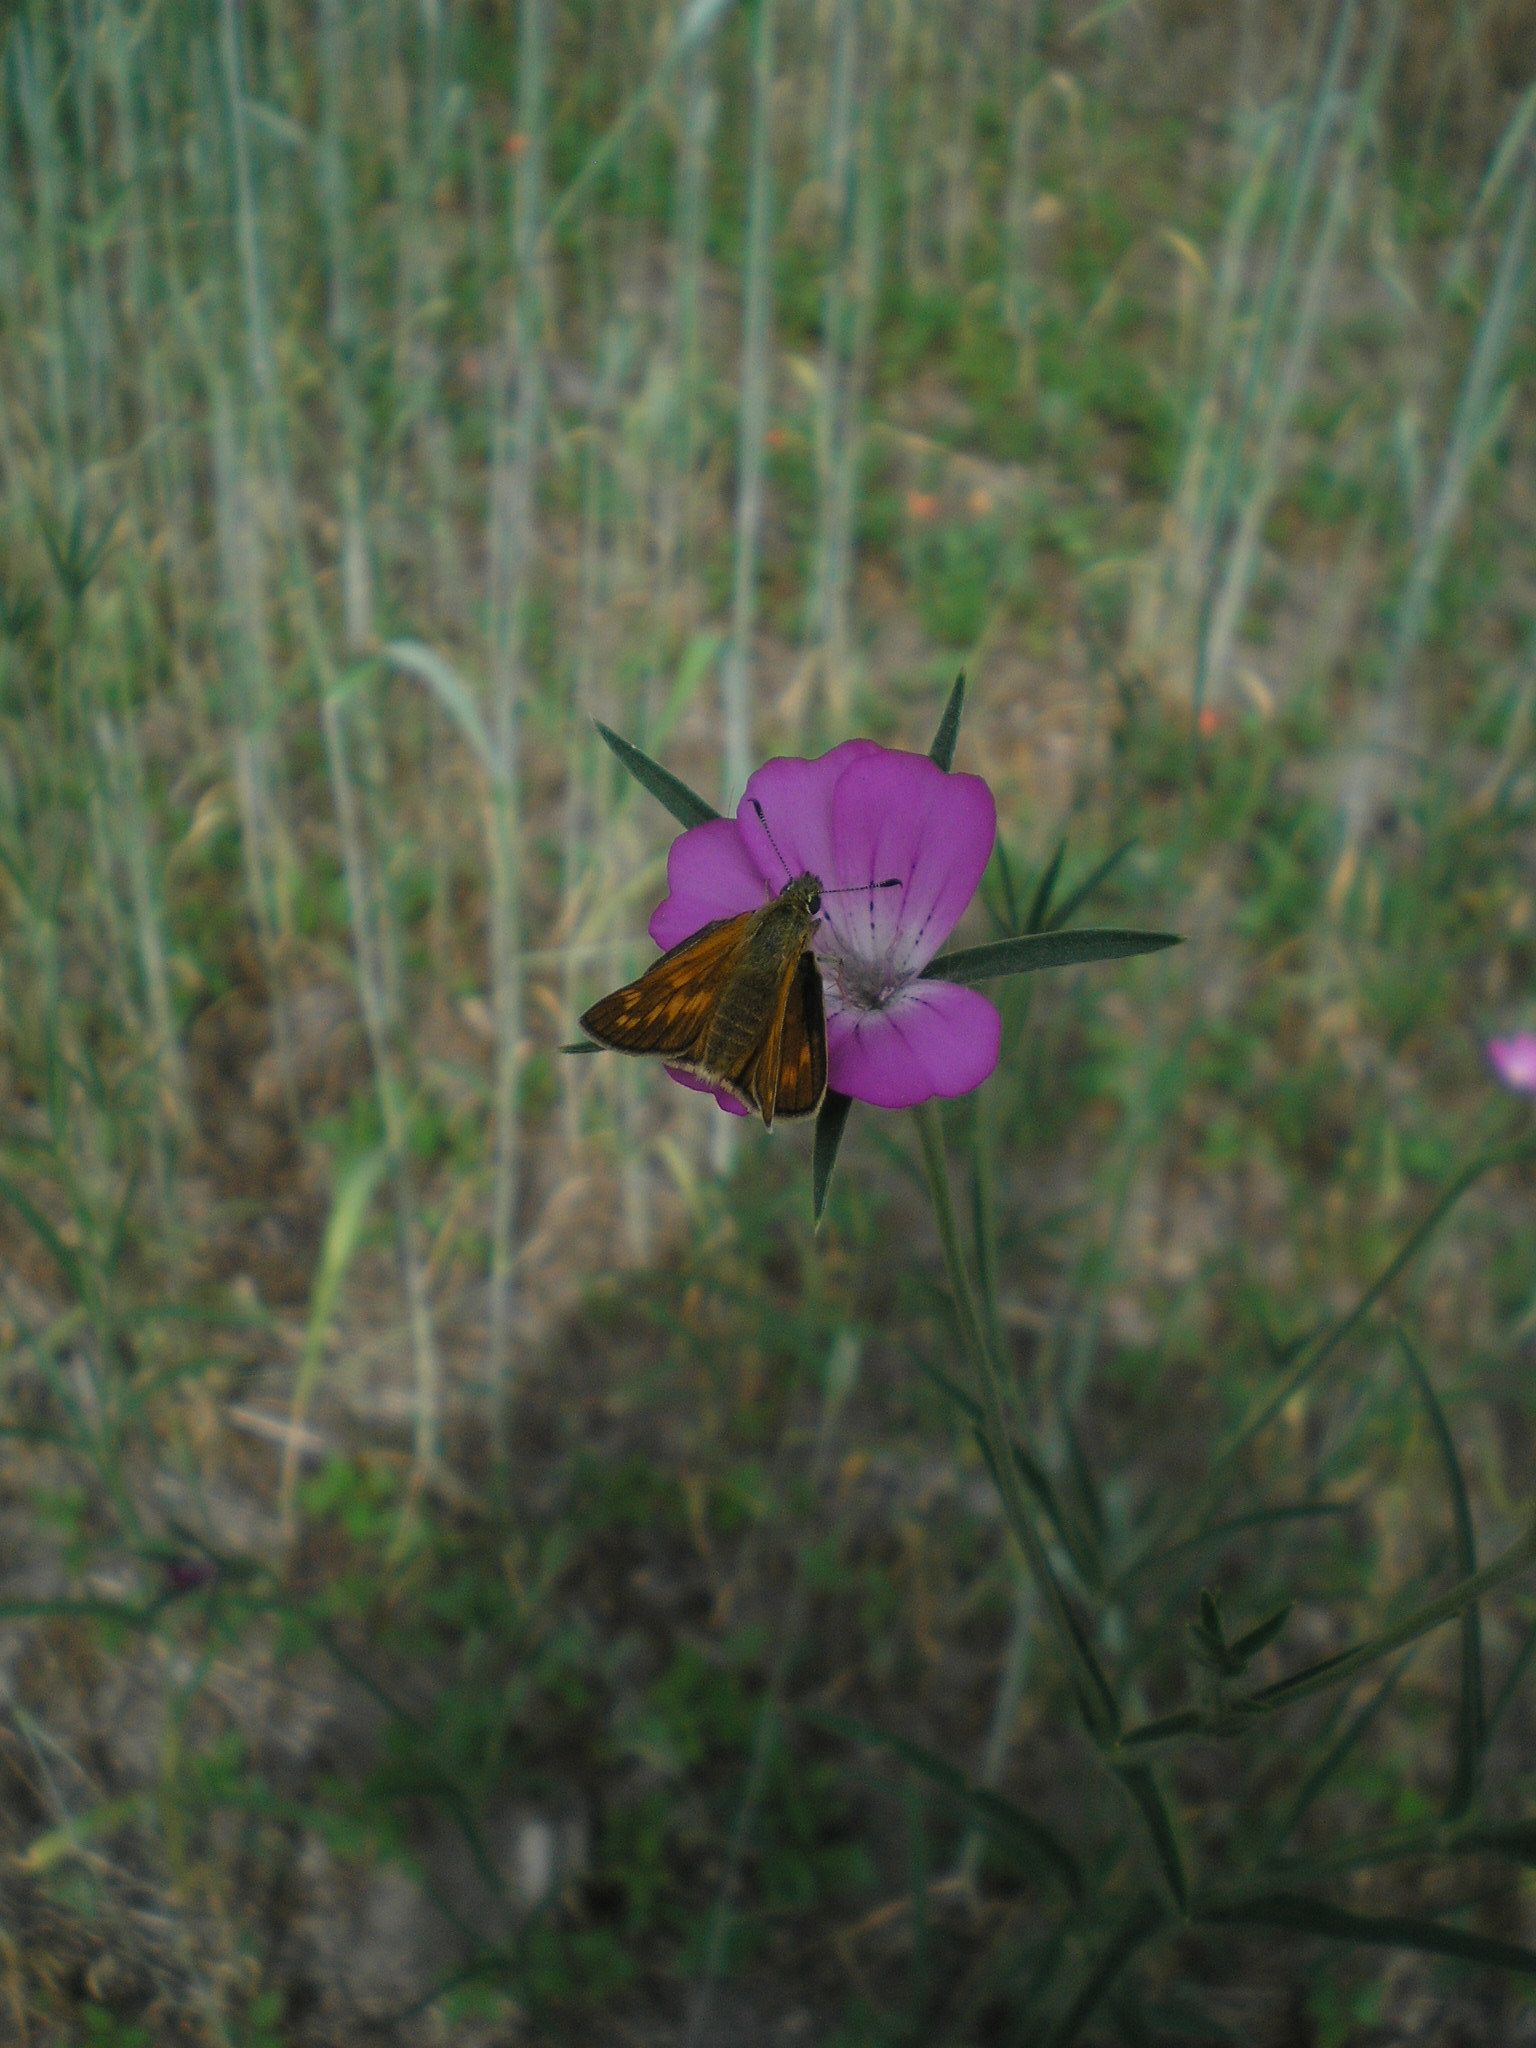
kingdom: Animalia
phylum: Arthropoda
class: Insecta
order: Lepidoptera
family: Hesperiidae
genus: Ochlodes
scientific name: Ochlodes venata
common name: Large skipper
